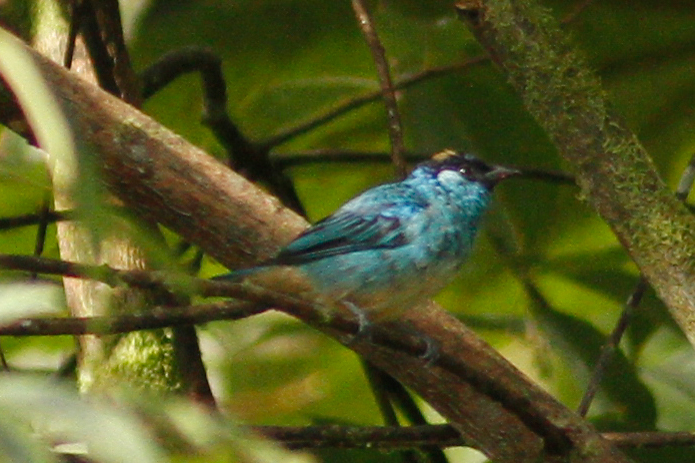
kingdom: Animalia
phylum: Chordata
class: Aves
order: Passeriformes
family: Thraupidae
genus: Chalcothraupis
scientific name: Chalcothraupis ruficervix
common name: Golden-naped tanager
